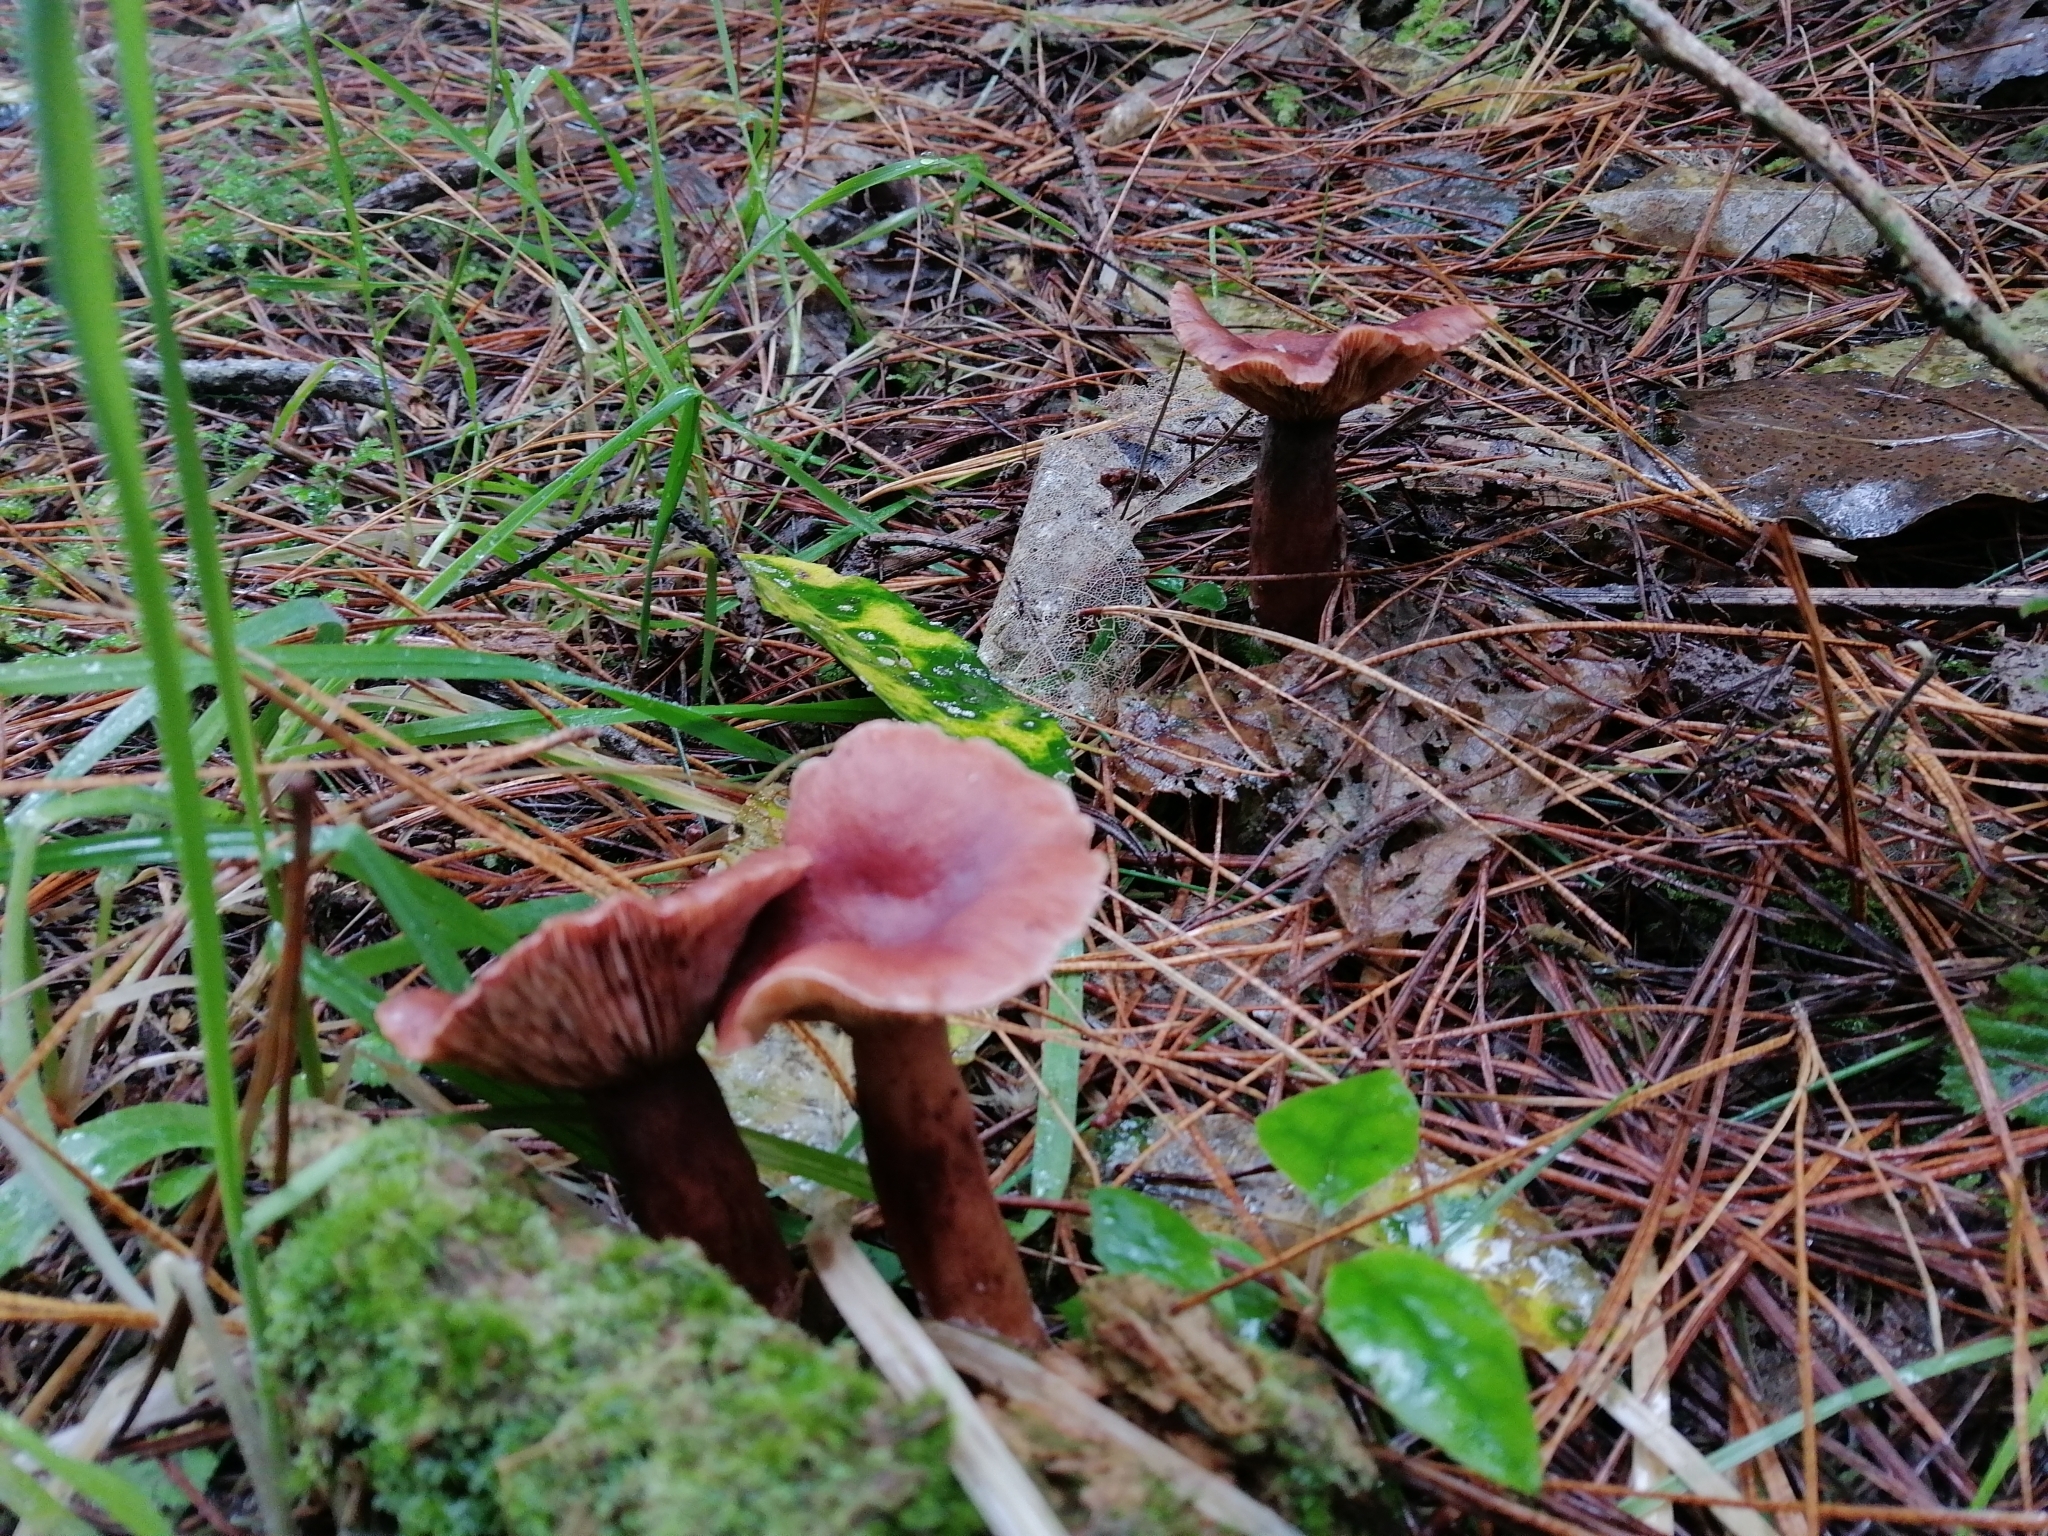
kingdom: Fungi
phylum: Basidiomycota
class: Agaricomycetes
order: Russulales
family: Russulaceae
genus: Lactarius
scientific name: Lactarius rufus
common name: Rufous milk-cap
